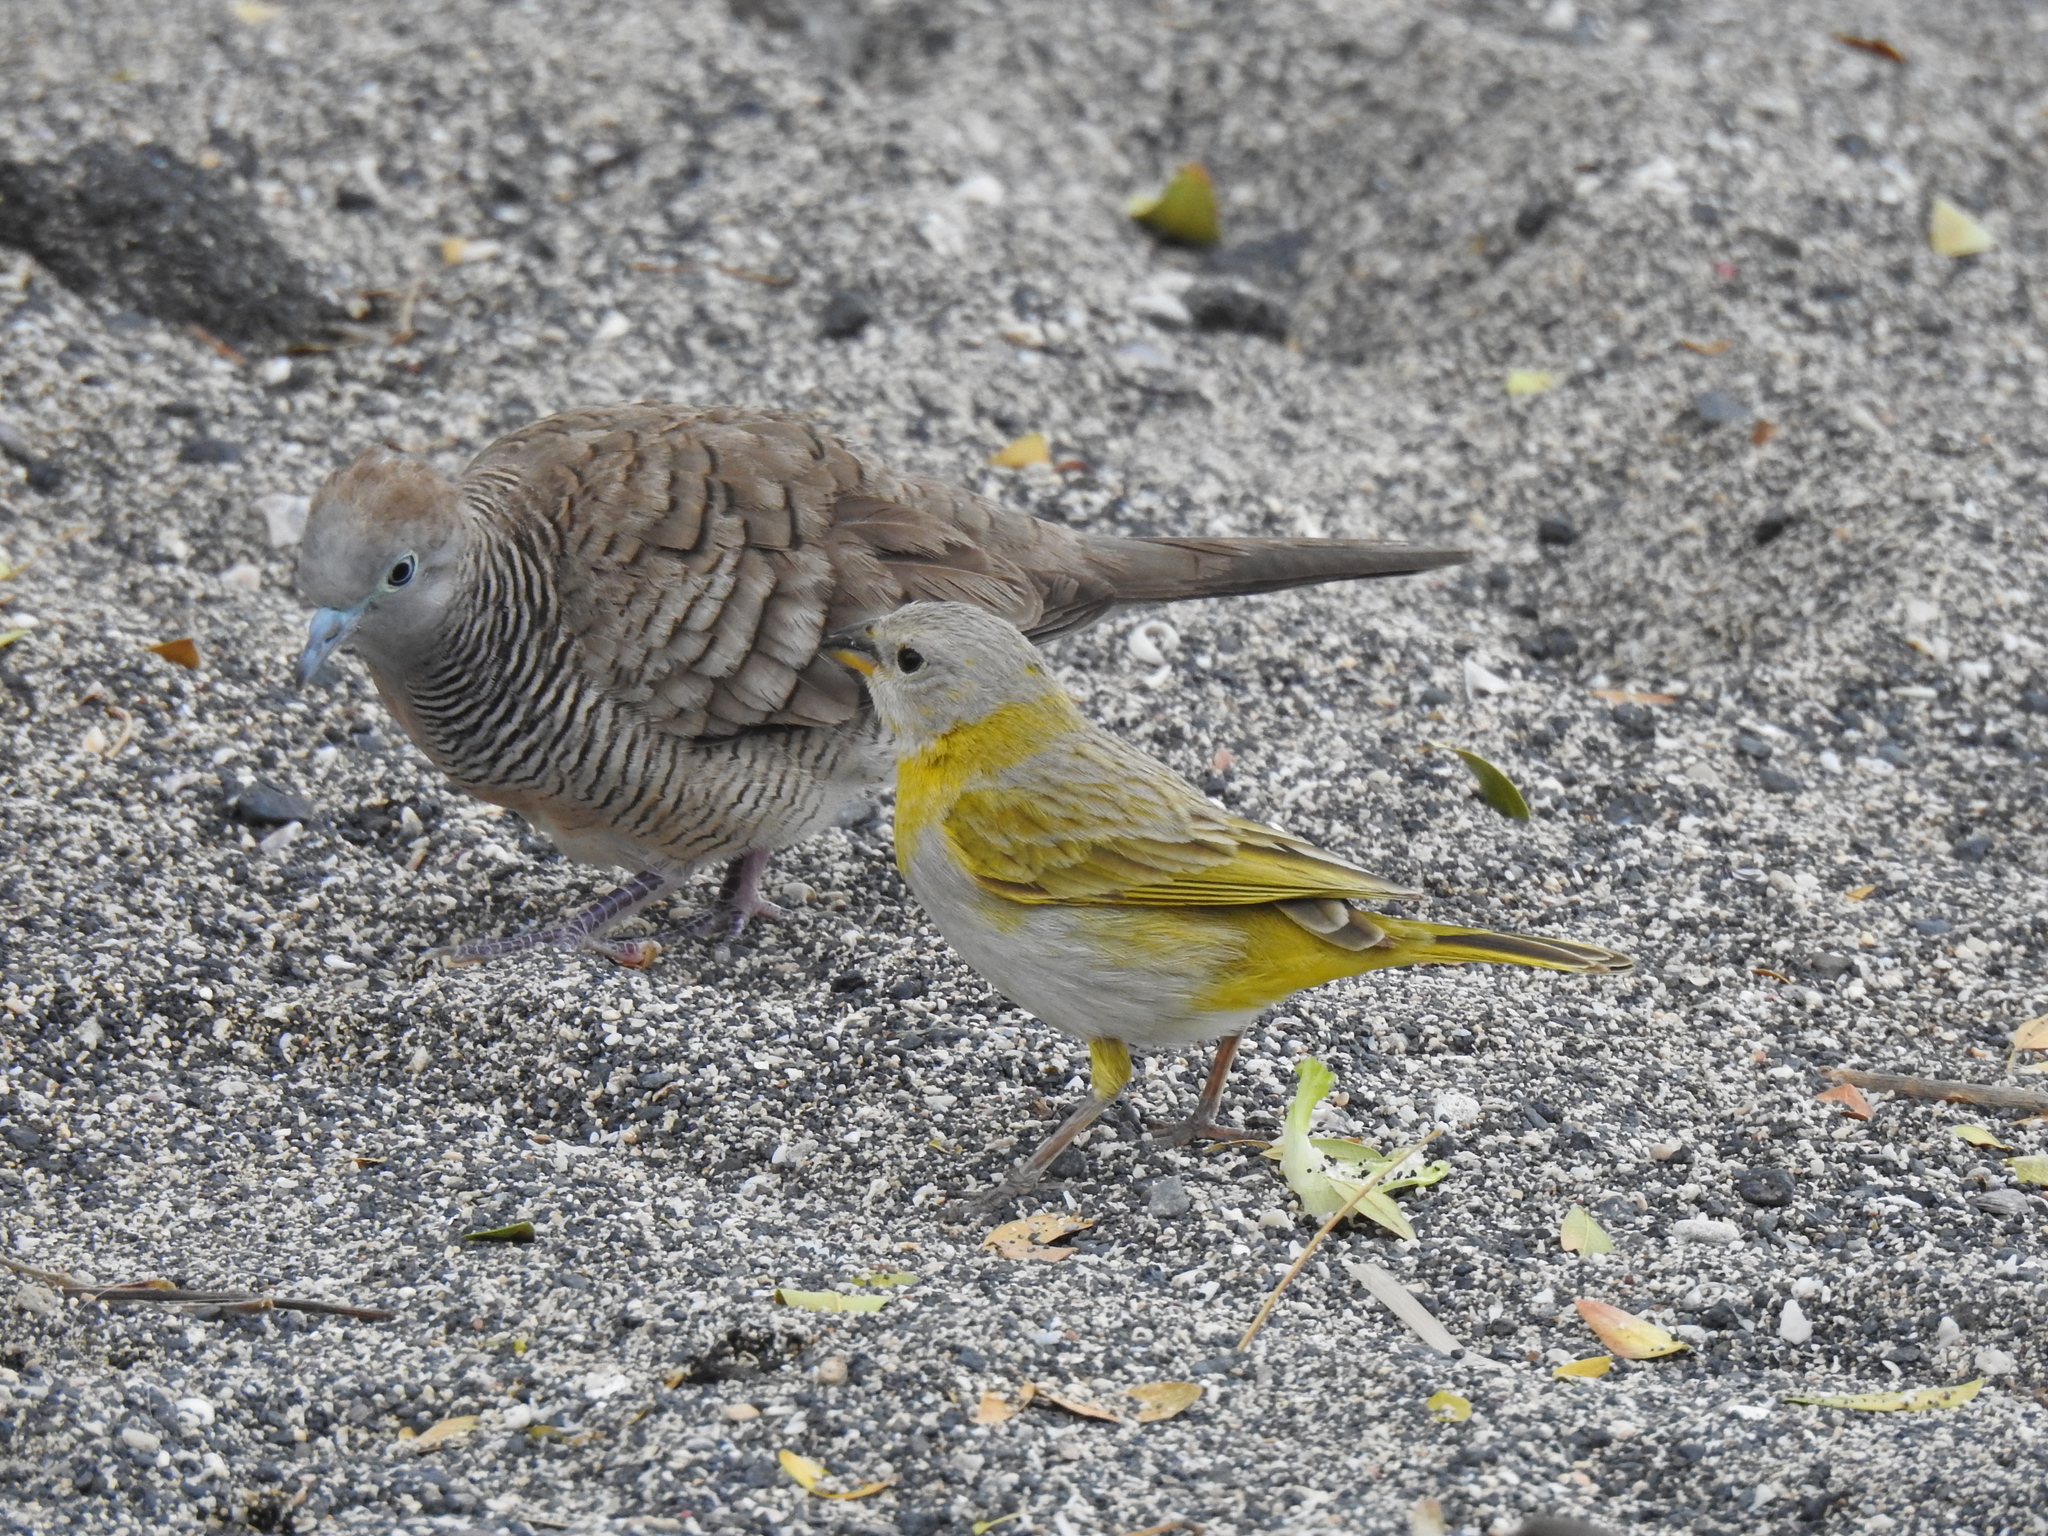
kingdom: Animalia
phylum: Chordata
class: Aves
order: Passeriformes
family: Thraupidae
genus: Sicalis
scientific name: Sicalis flaveola
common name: Saffron finch
